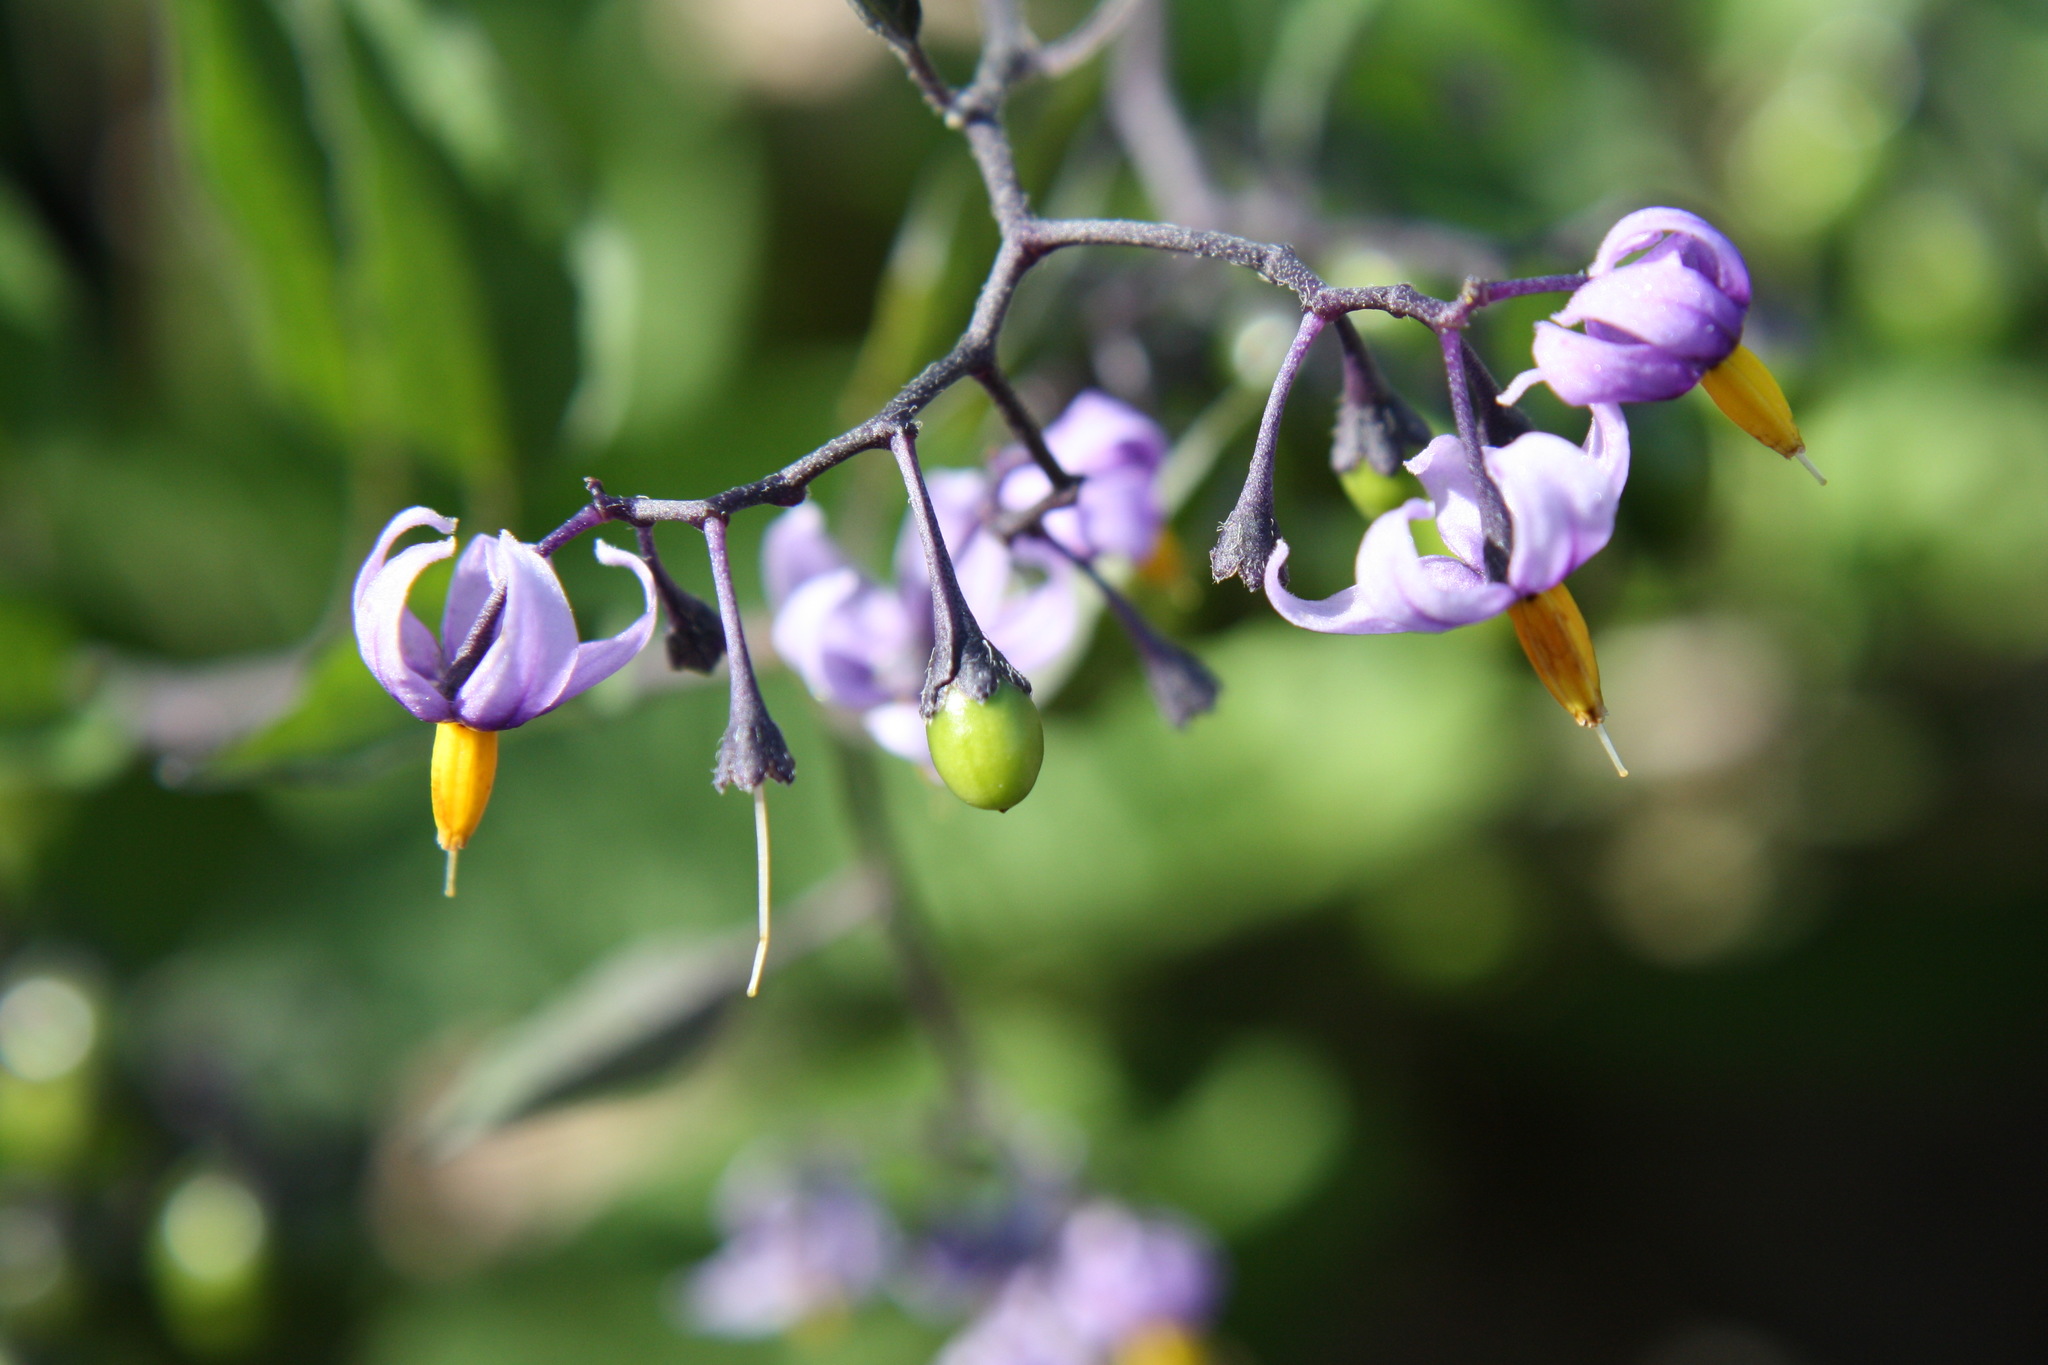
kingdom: Plantae
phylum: Tracheophyta
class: Magnoliopsida
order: Solanales
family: Solanaceae
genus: Solanum
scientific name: Solanum dulcamara
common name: Climbing nightshade
